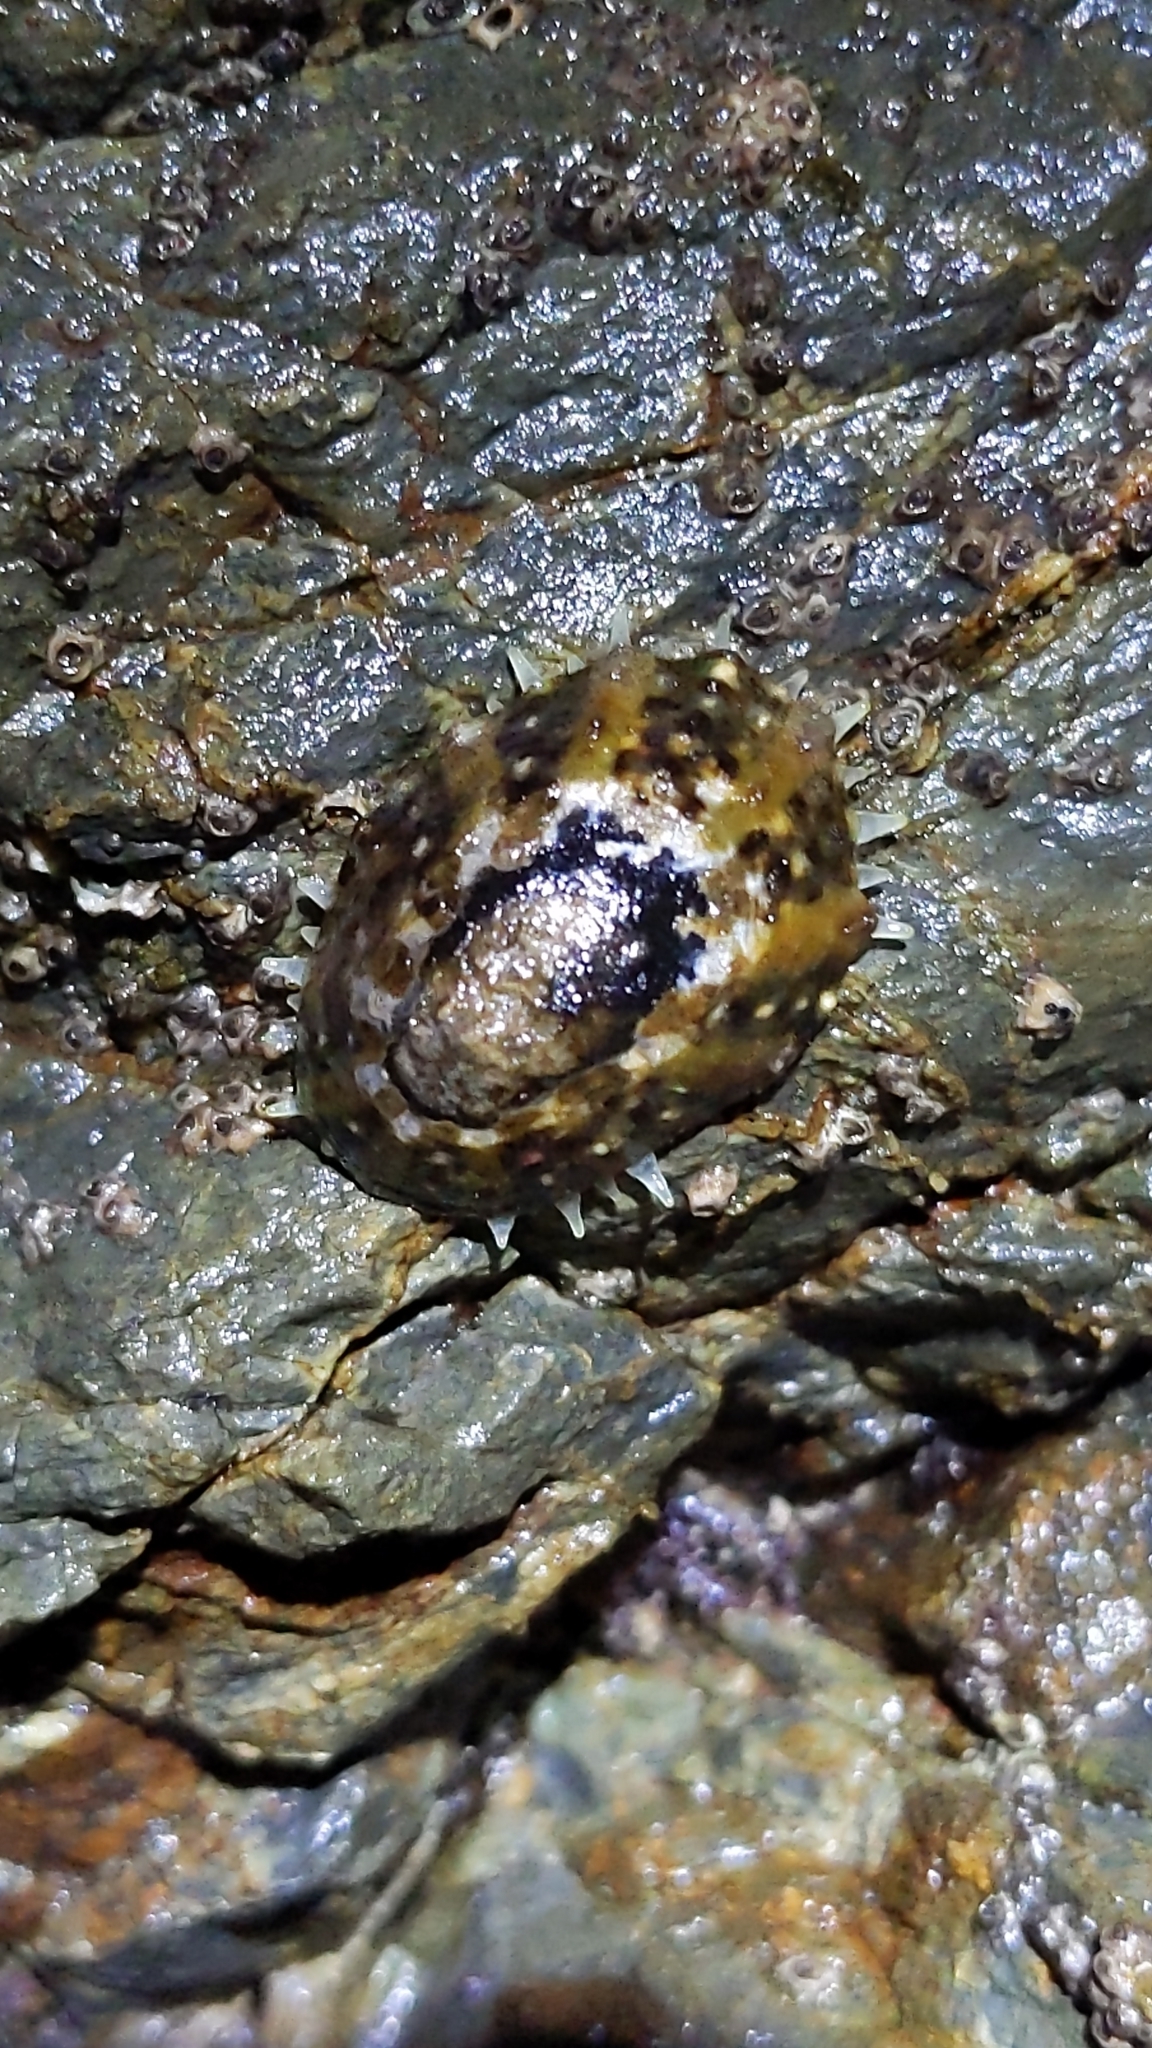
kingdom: Animalia
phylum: Mollusca
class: Gastropoda
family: Nacellidae
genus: Cellana
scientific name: Cellana ornata
